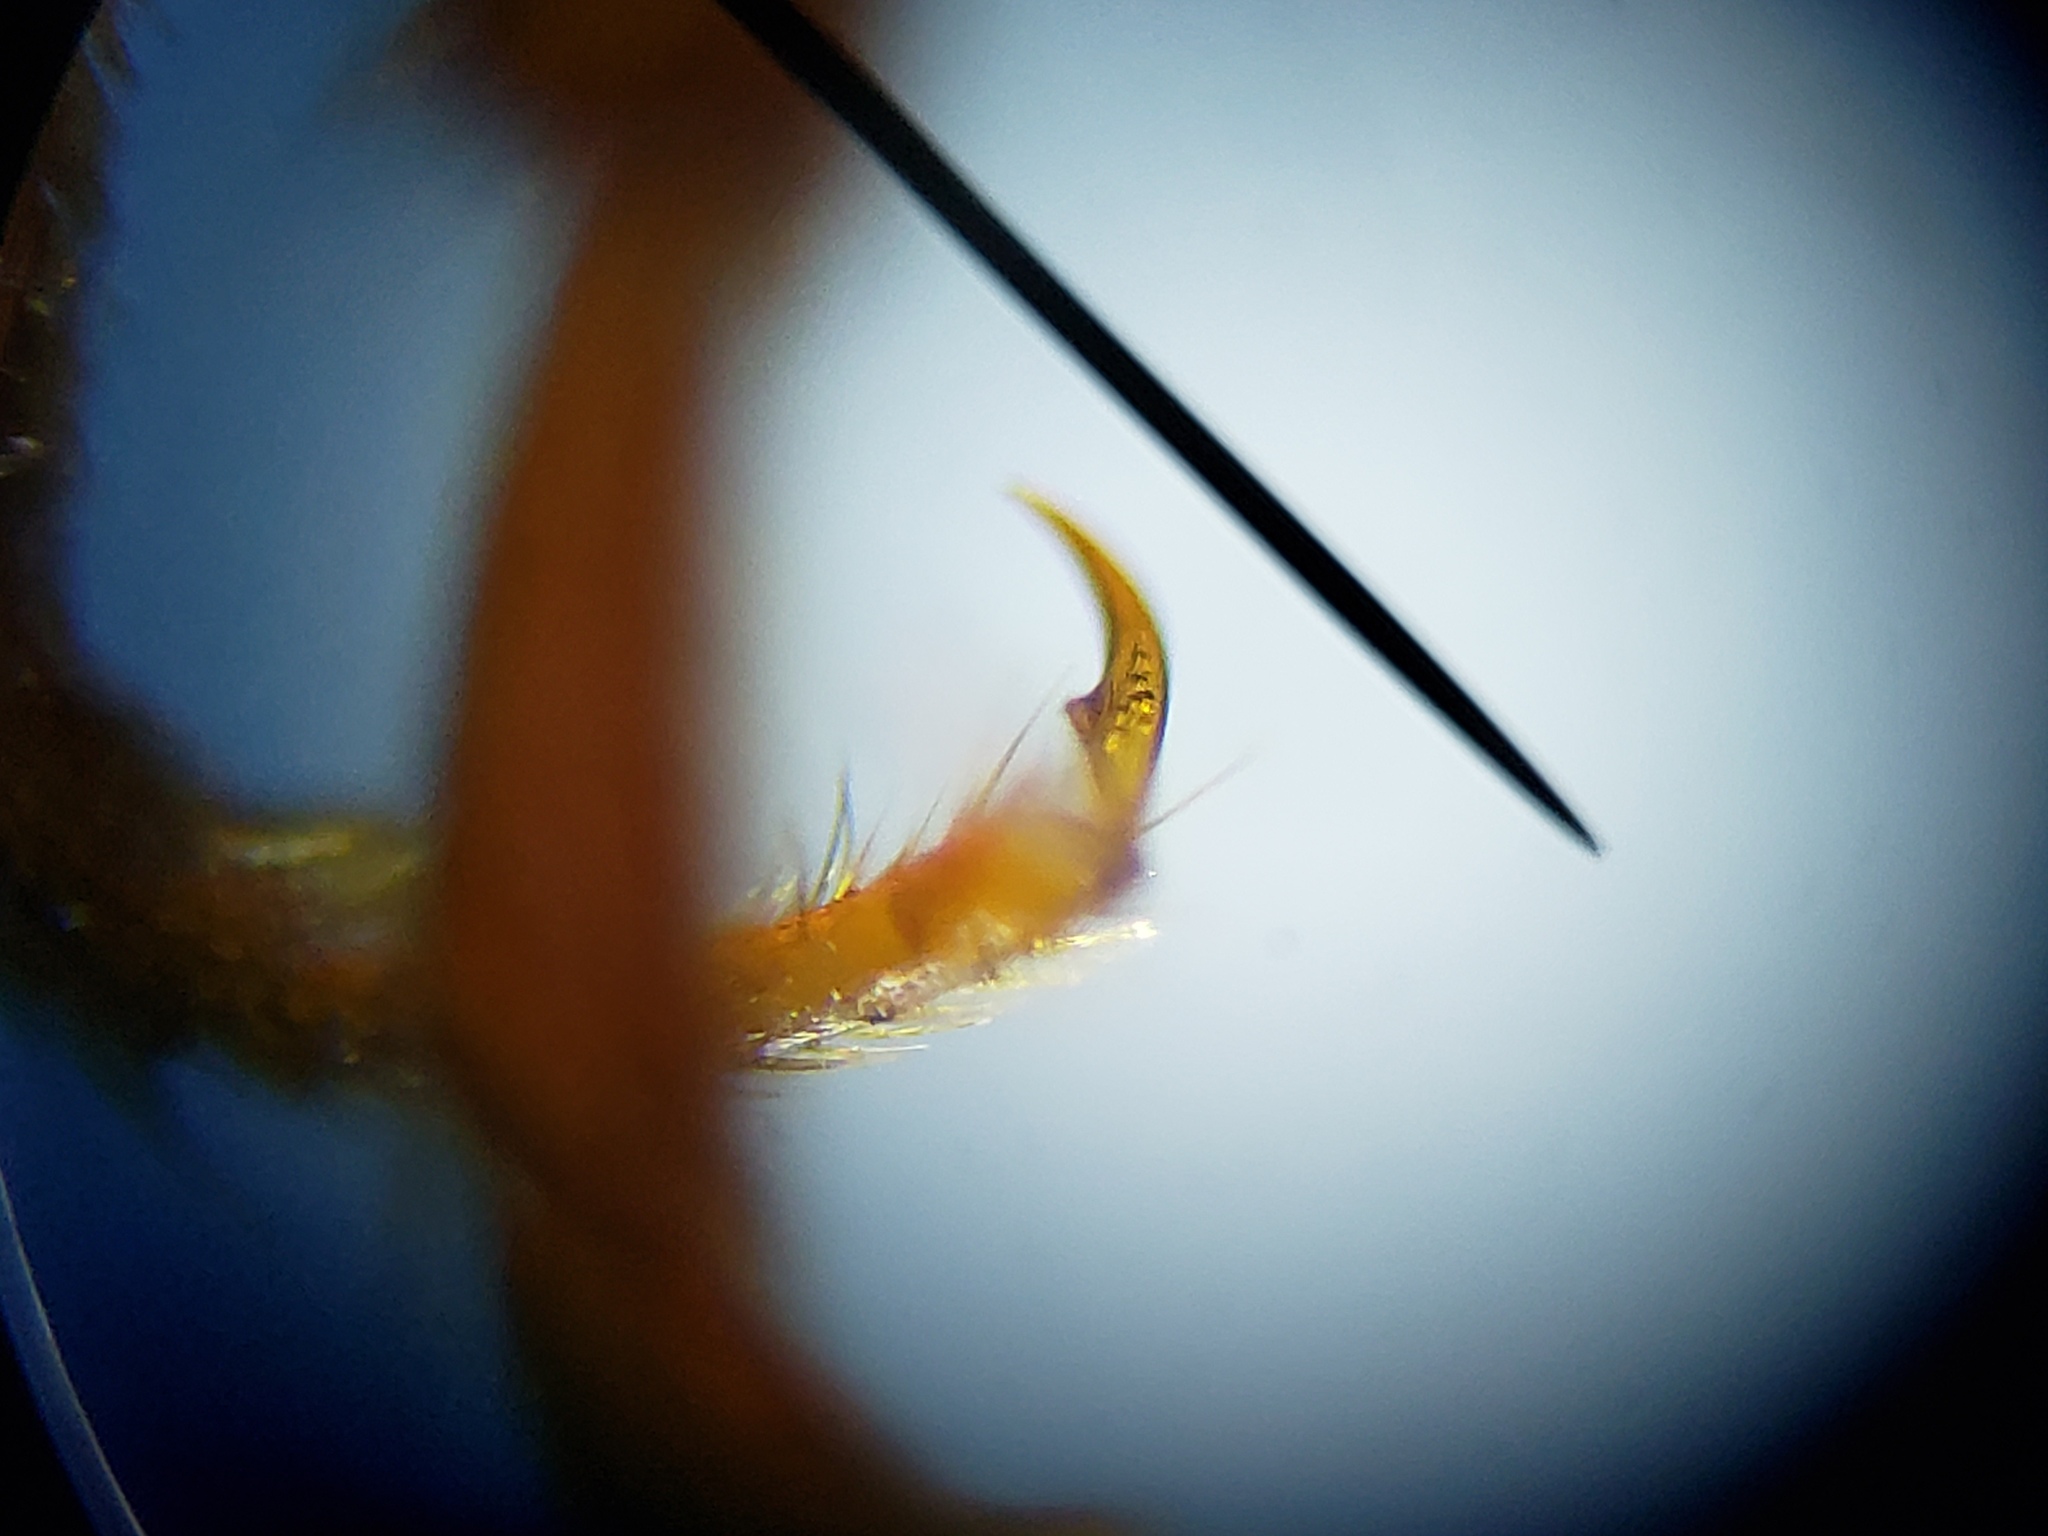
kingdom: Animalia
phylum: Arthropoda
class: Insecta
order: Coleoptera
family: Elateridae
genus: Dipropus
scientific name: Dipropus
